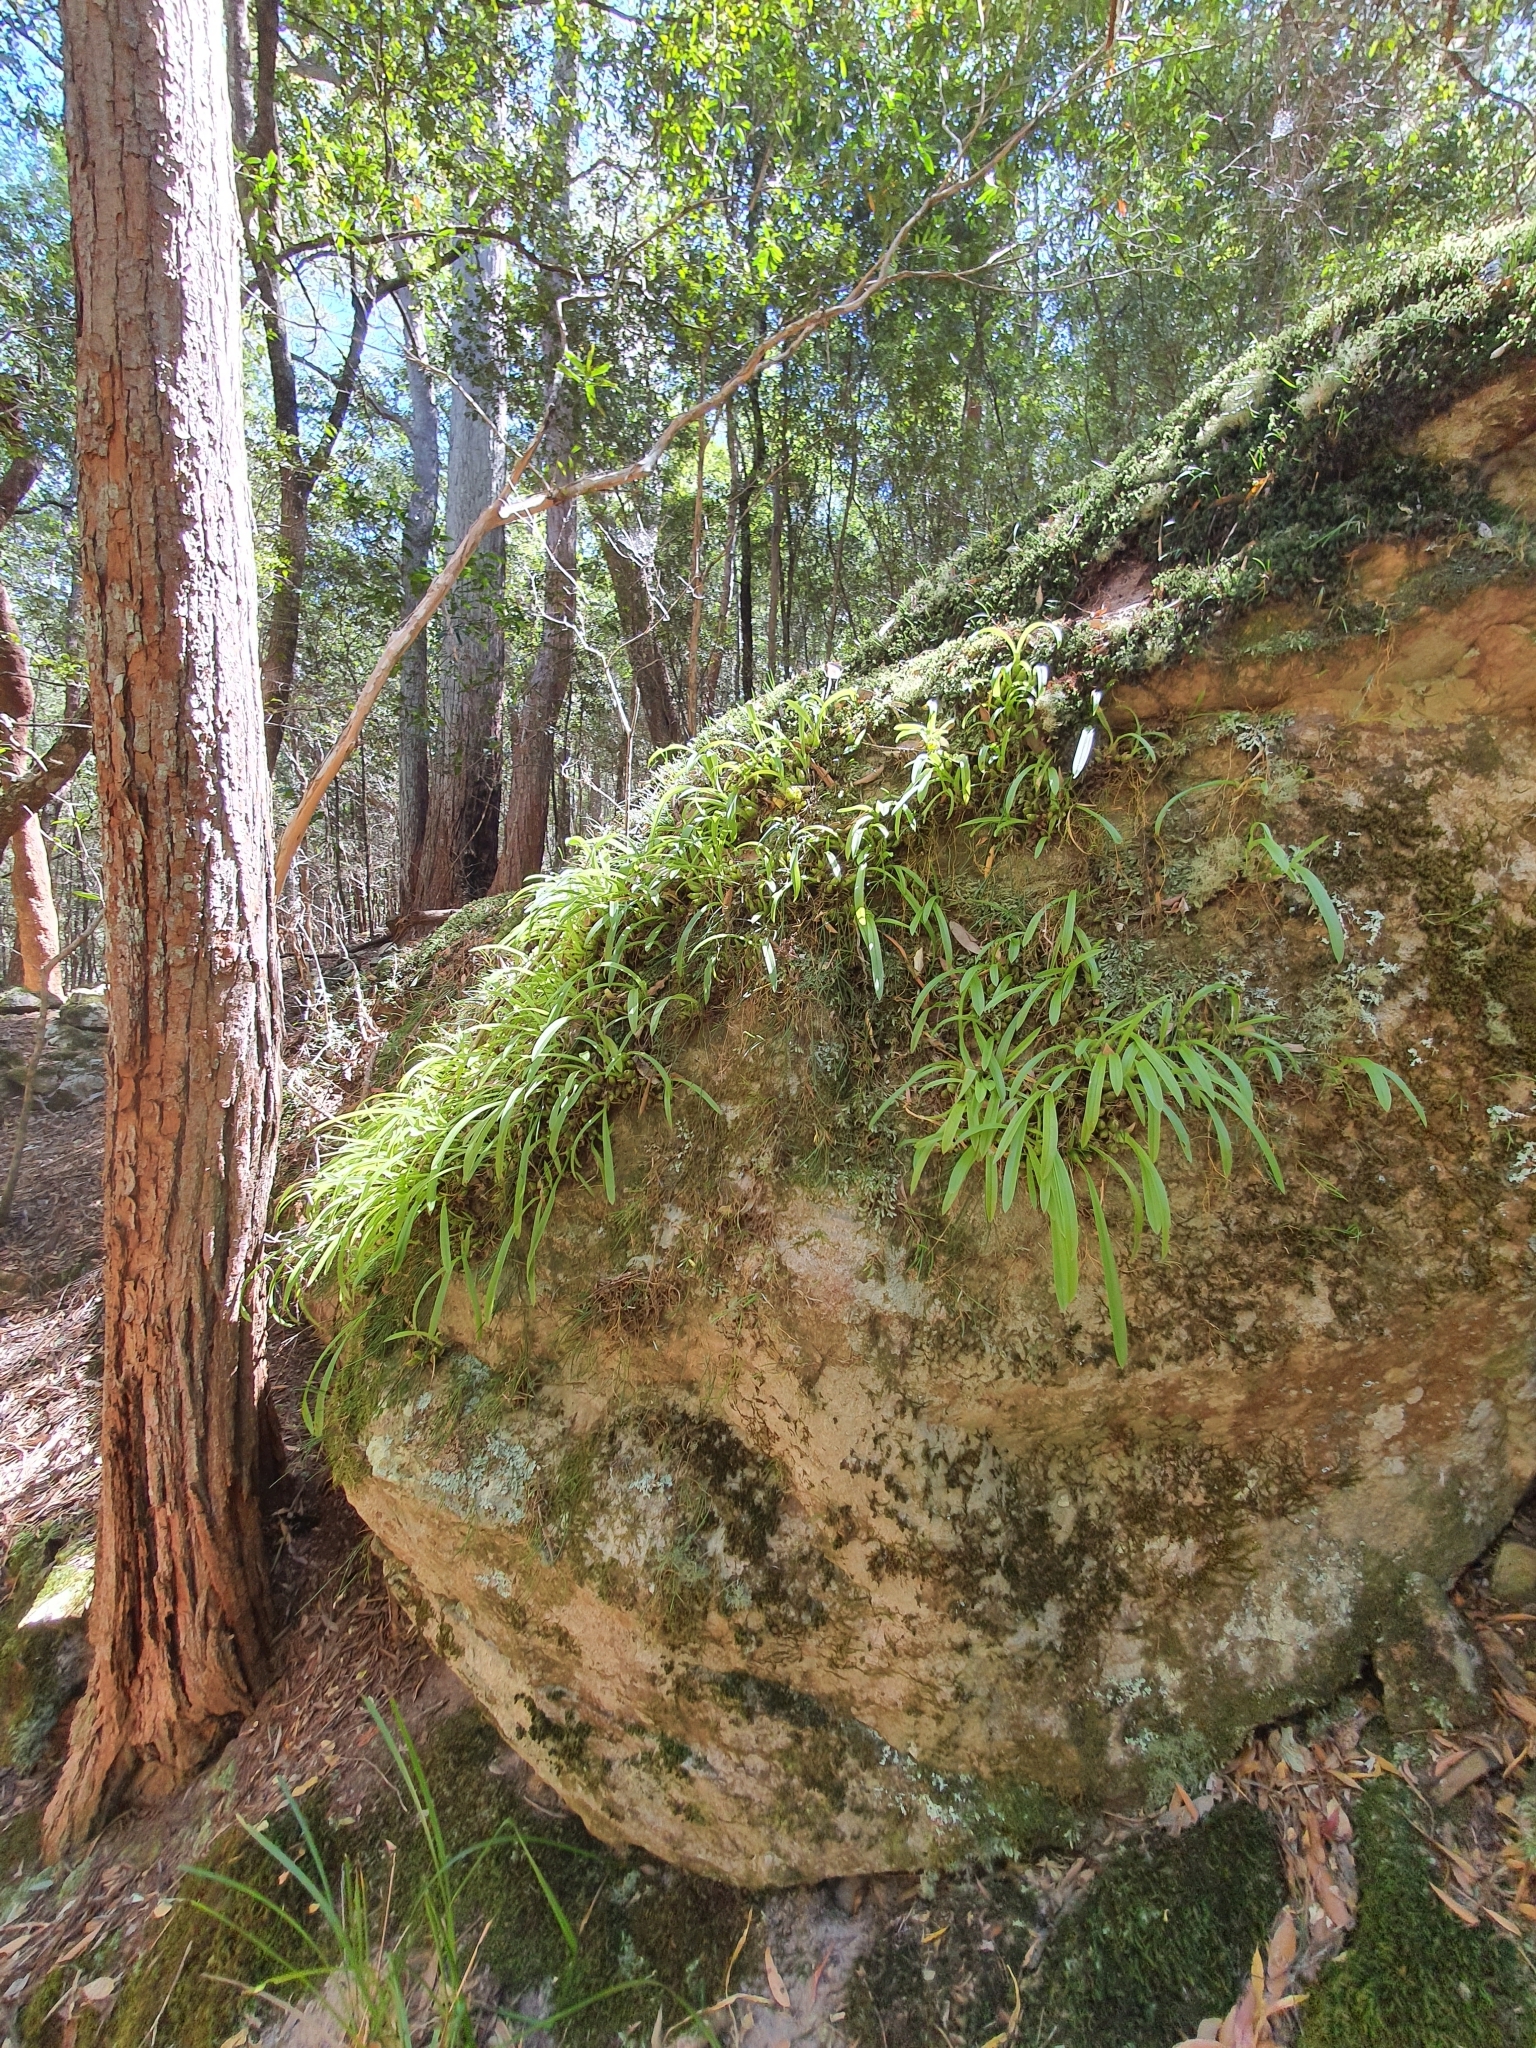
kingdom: Plantae
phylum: Tracheophyta
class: Liliopsida
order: Asparagales
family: Orchidaceae
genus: Liparis
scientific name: Liparis reflexa
